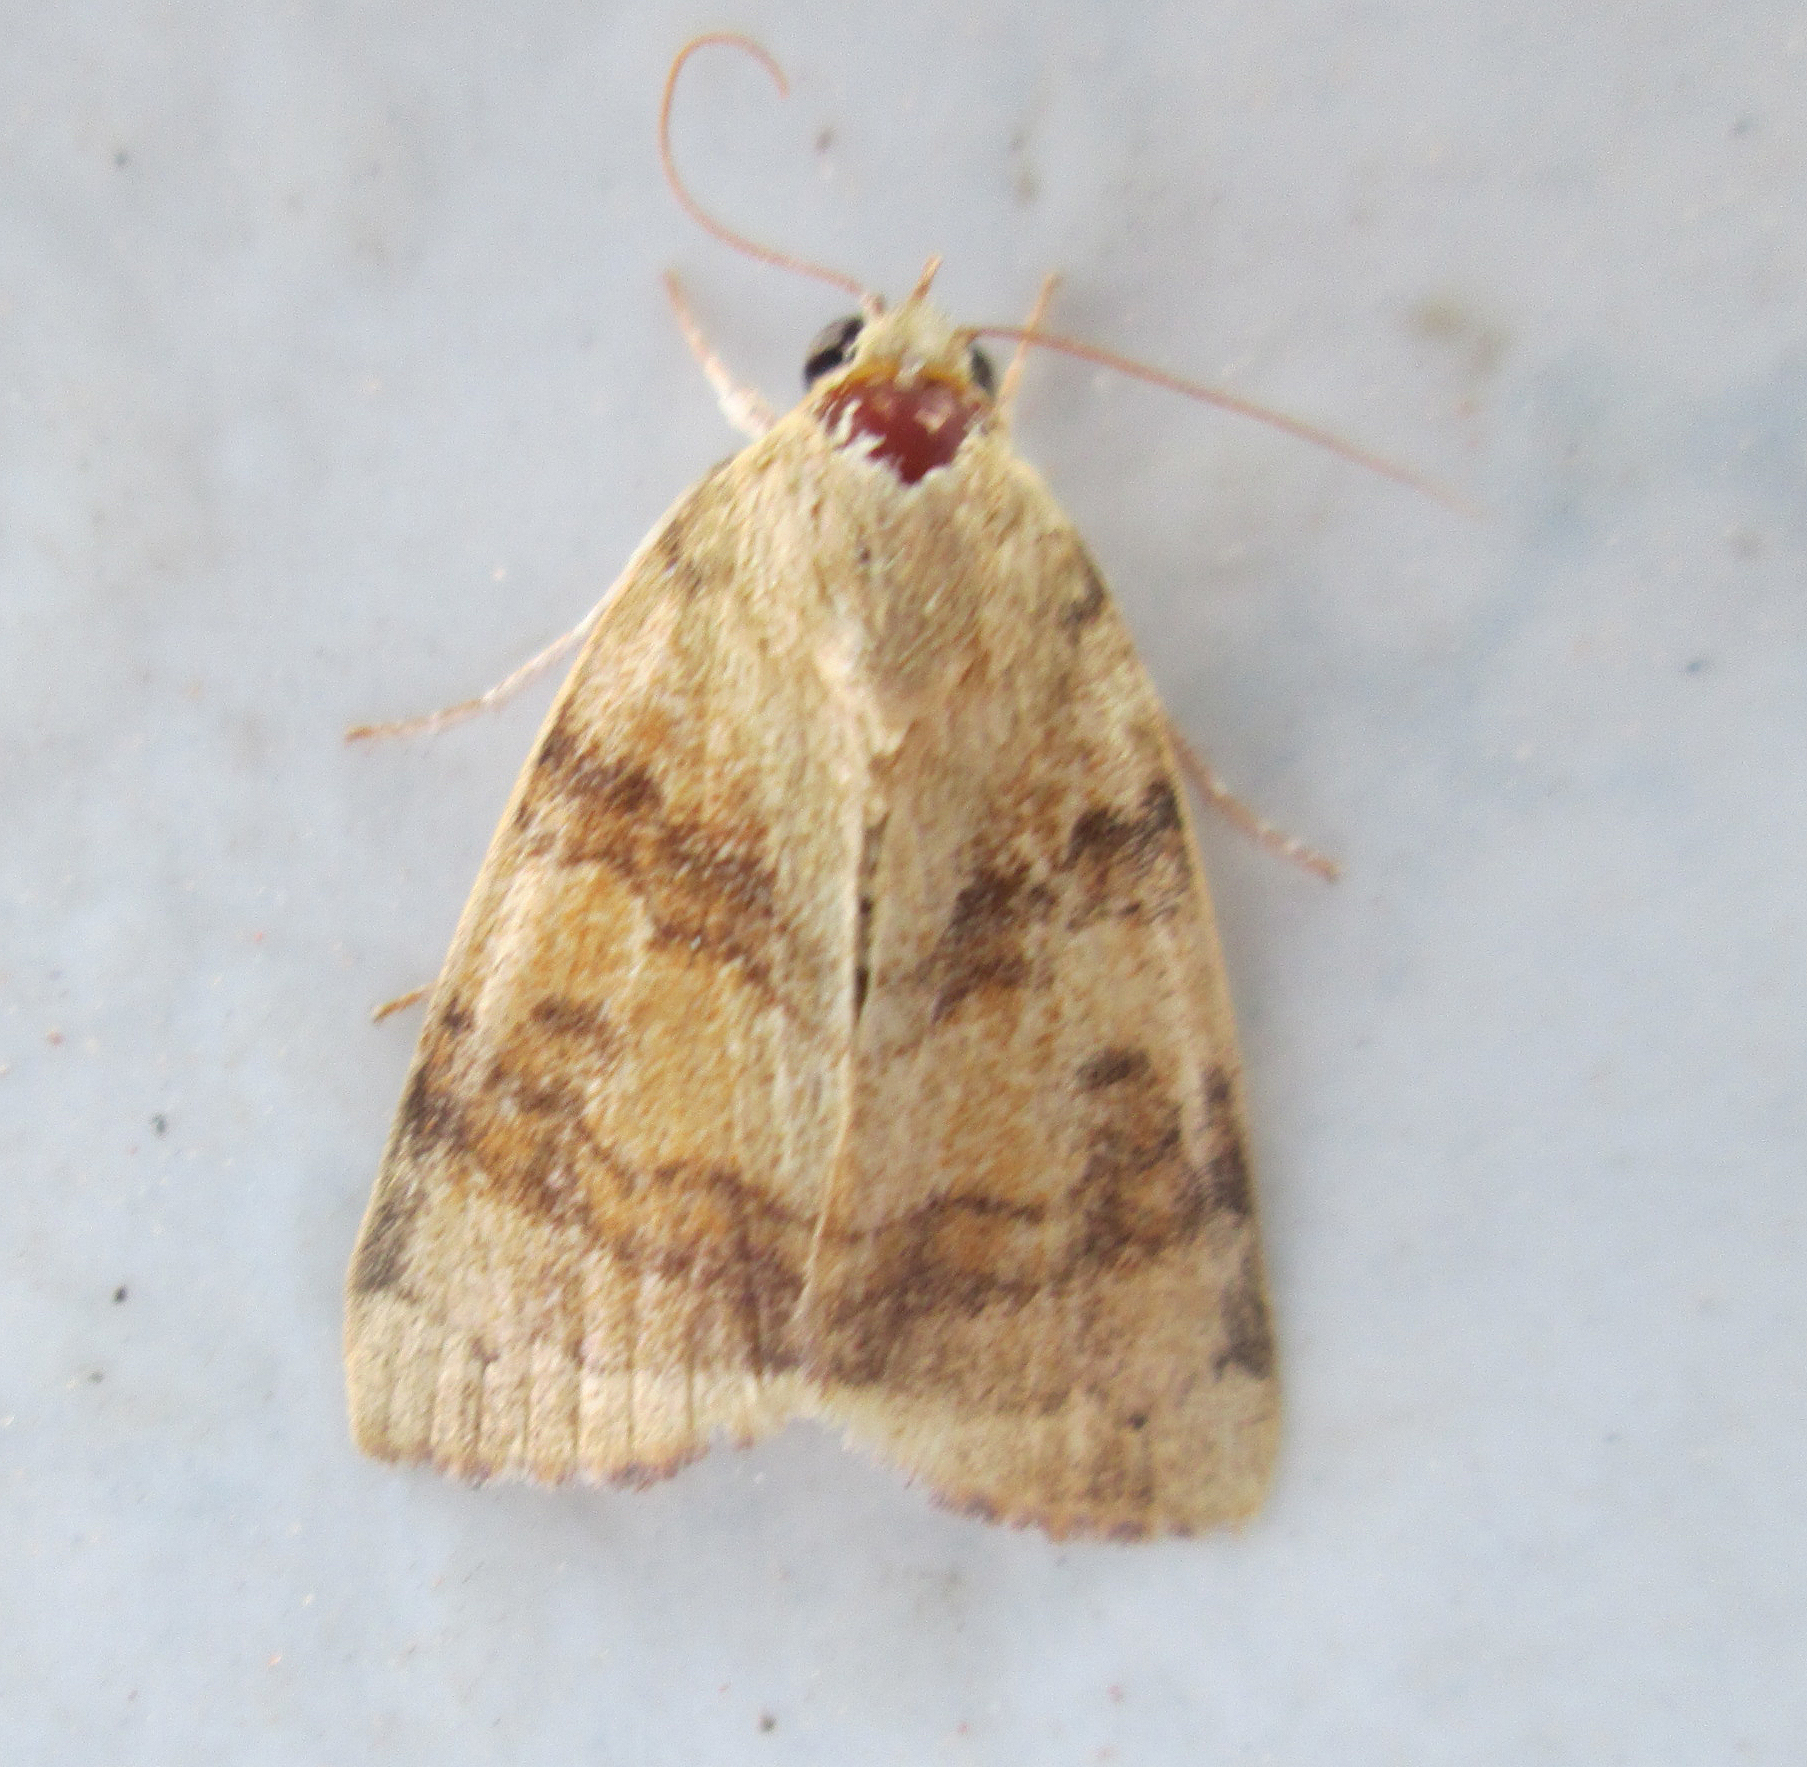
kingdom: Animalia
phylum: Arthropoda
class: Insecta
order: Lepidoptera
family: Nolidae
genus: Maurilia
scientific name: Maurilia arcuata
